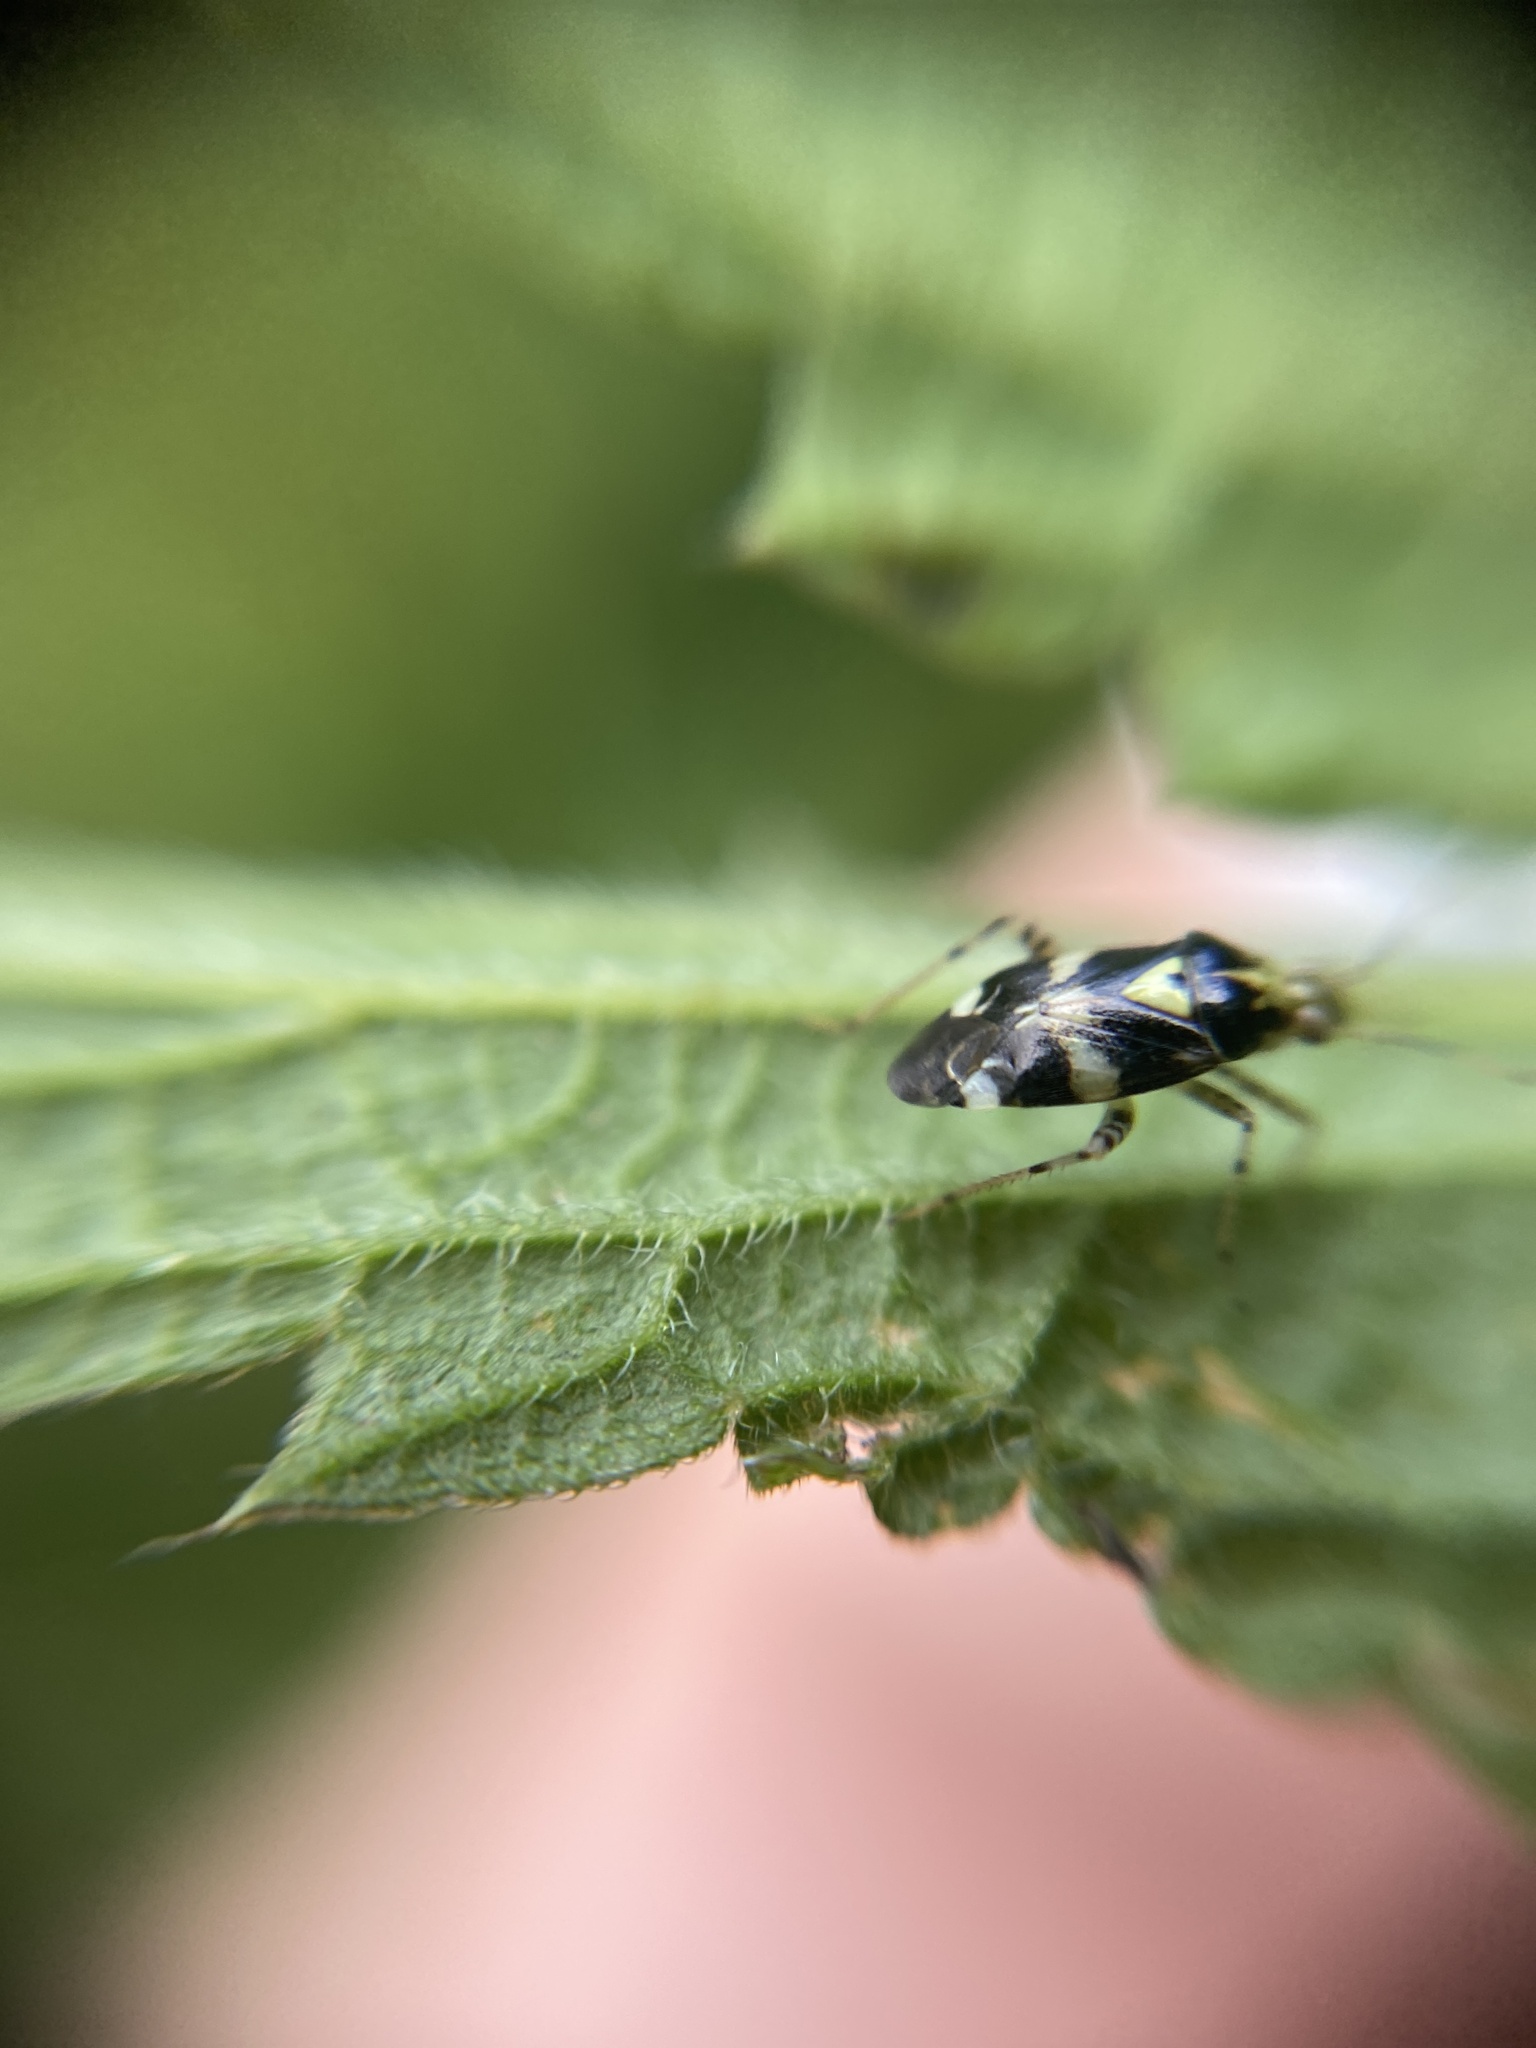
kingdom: Animalia
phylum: Arthropoda
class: Insecta
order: Hemiptera
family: Miridae
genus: Liocoris
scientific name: Liocoris tripustulatus
